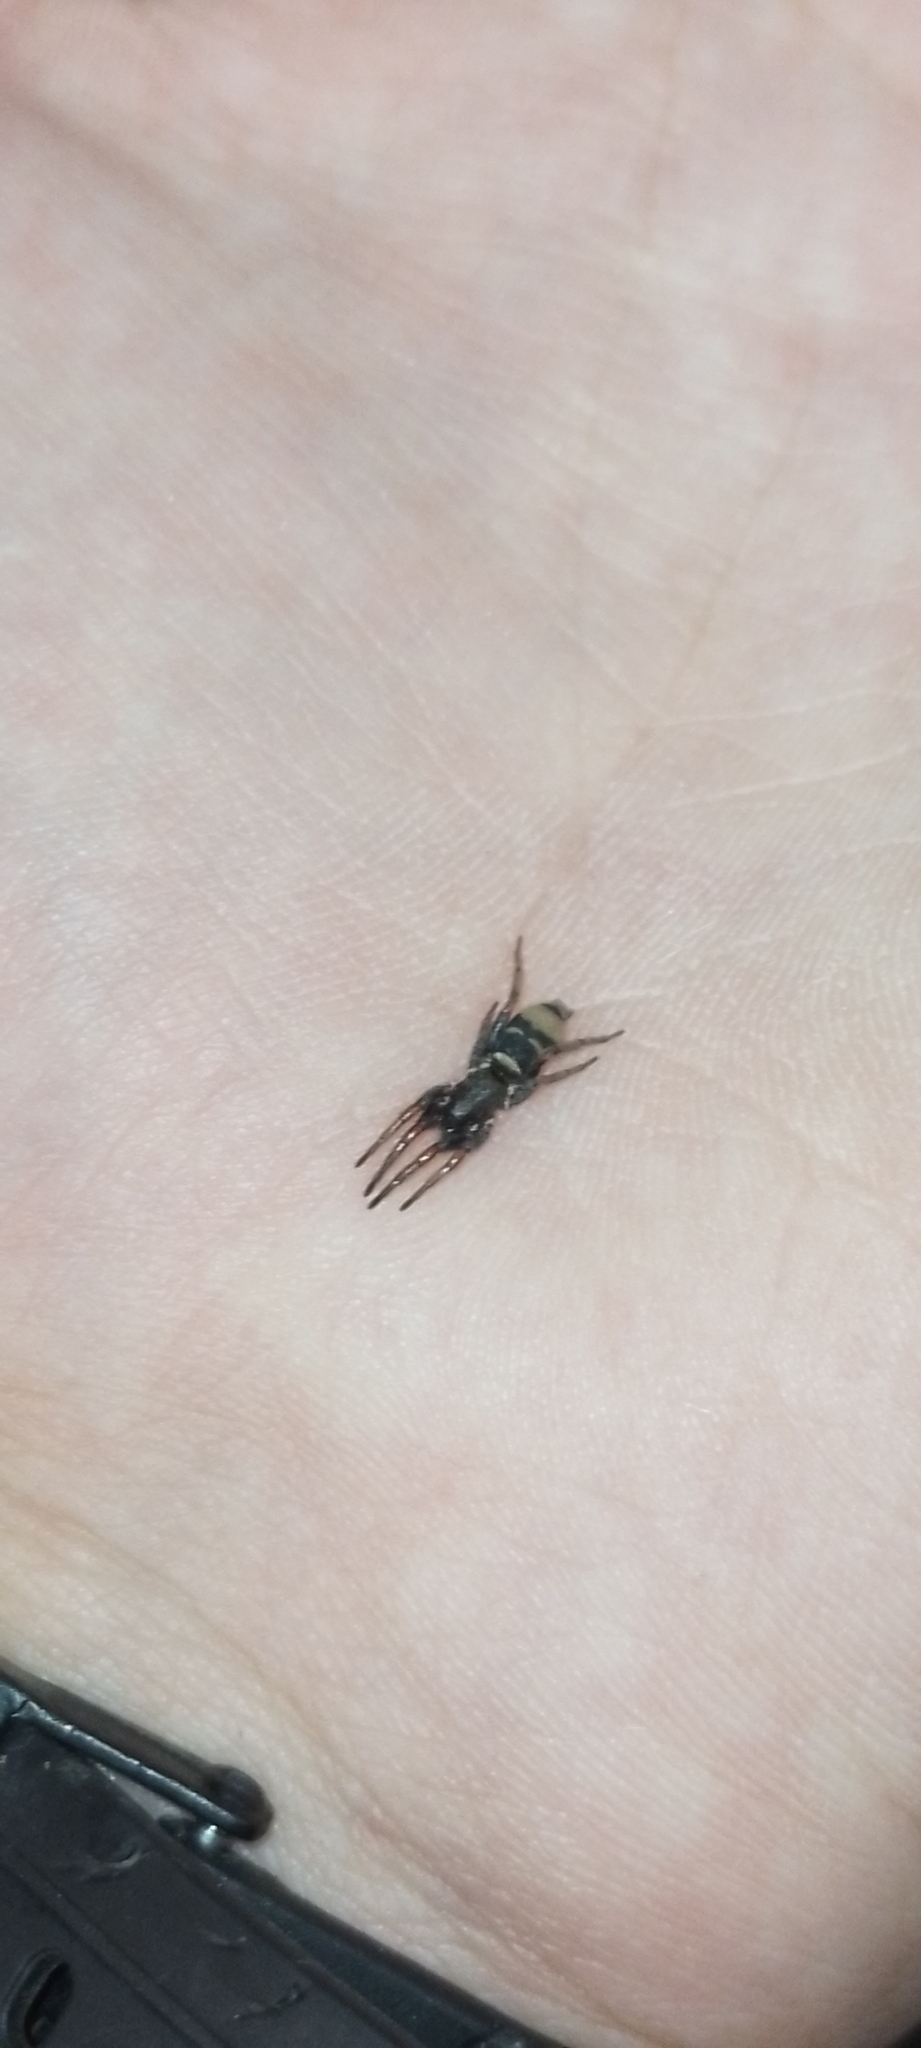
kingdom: Animalia
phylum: Arthropoda
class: Arachnida
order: Araneae
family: Gnaphosidae
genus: Latonigena
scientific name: Latonigena auricomis
